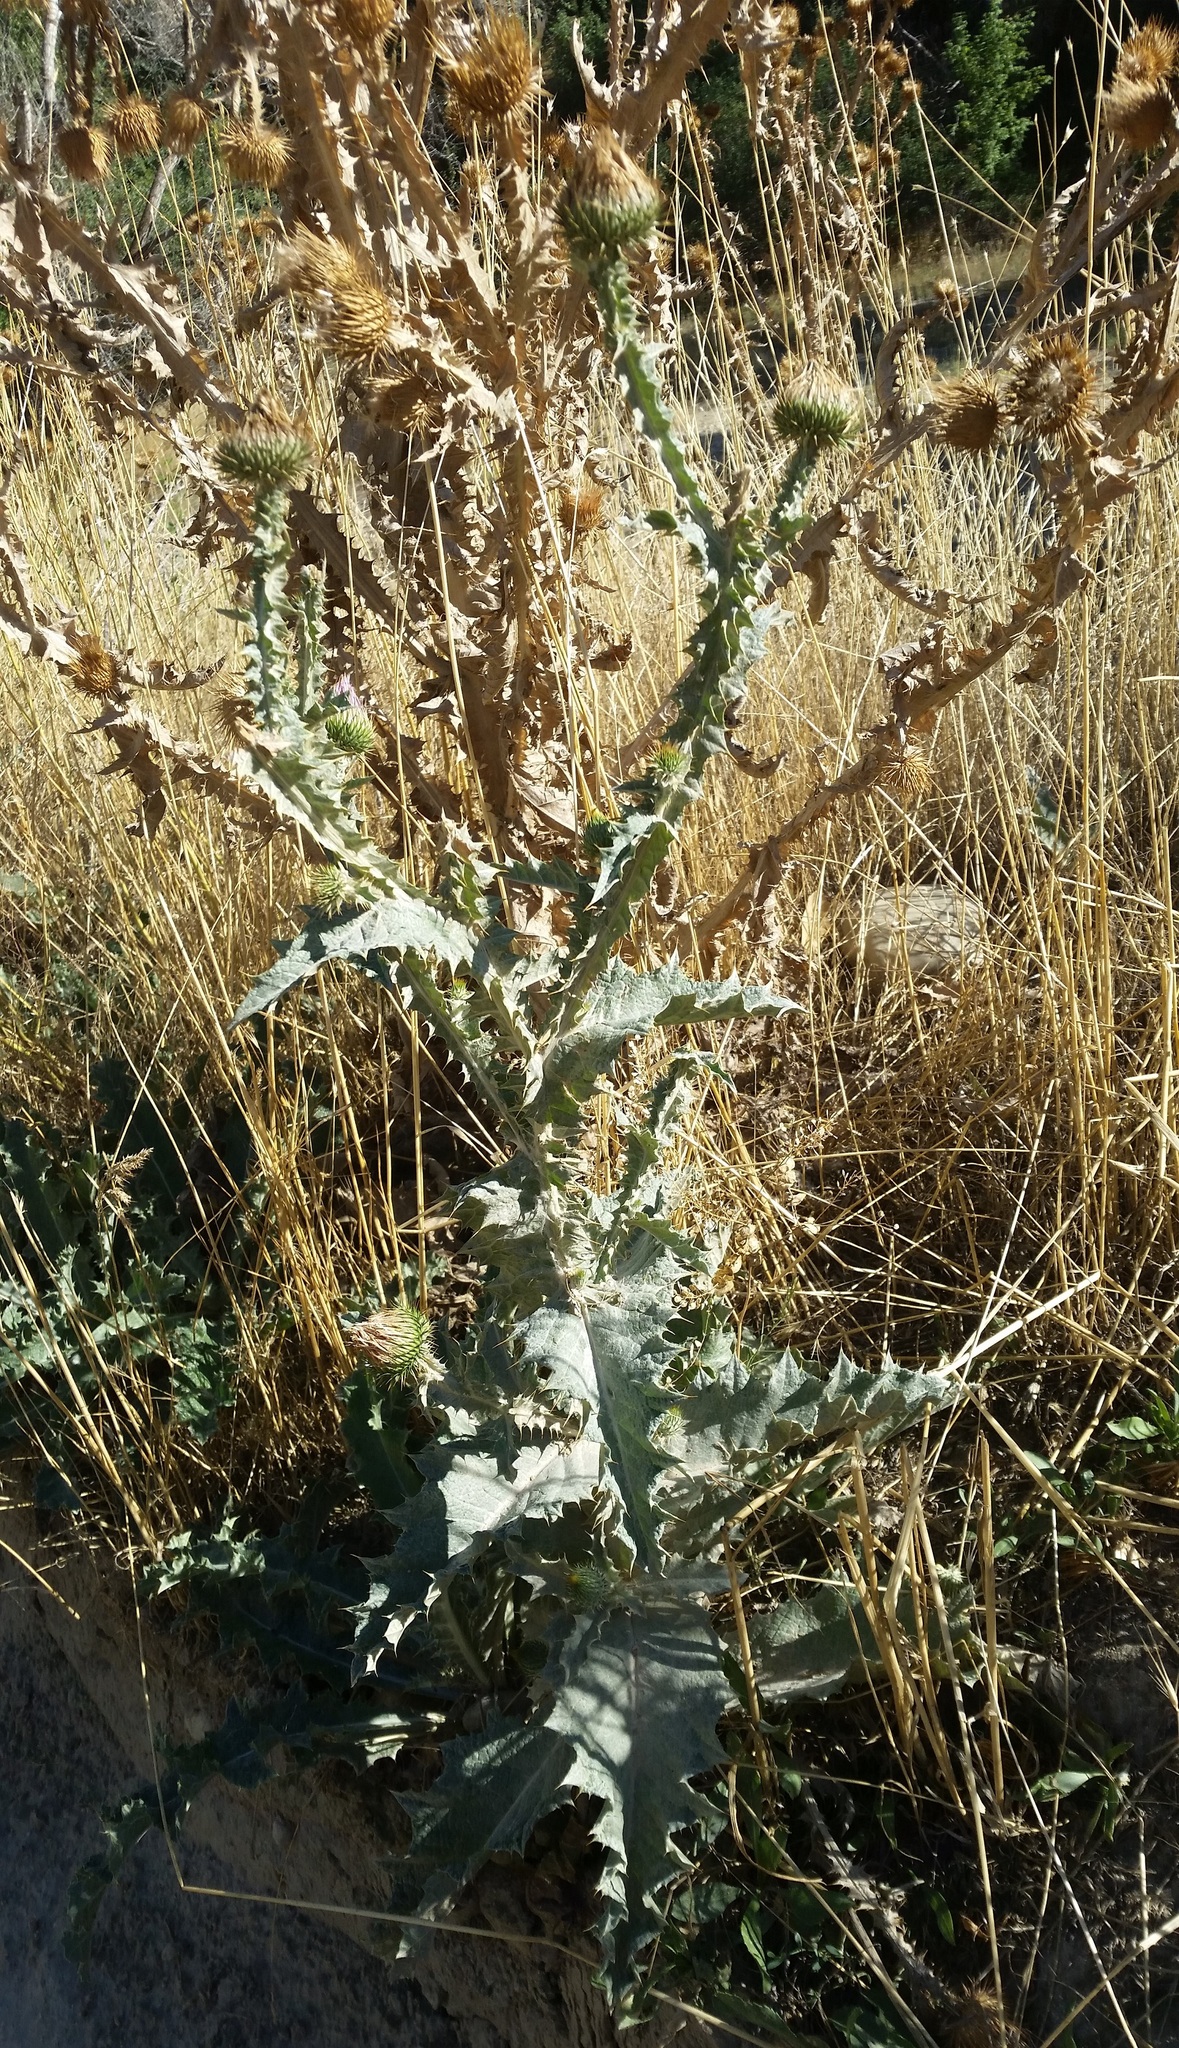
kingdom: Plantae
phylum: Tracheophyta
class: Magnoliopsida
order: Asterales
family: Asteraceae
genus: Onopordum
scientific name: Onopordum acanthium
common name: Scotch thistle
